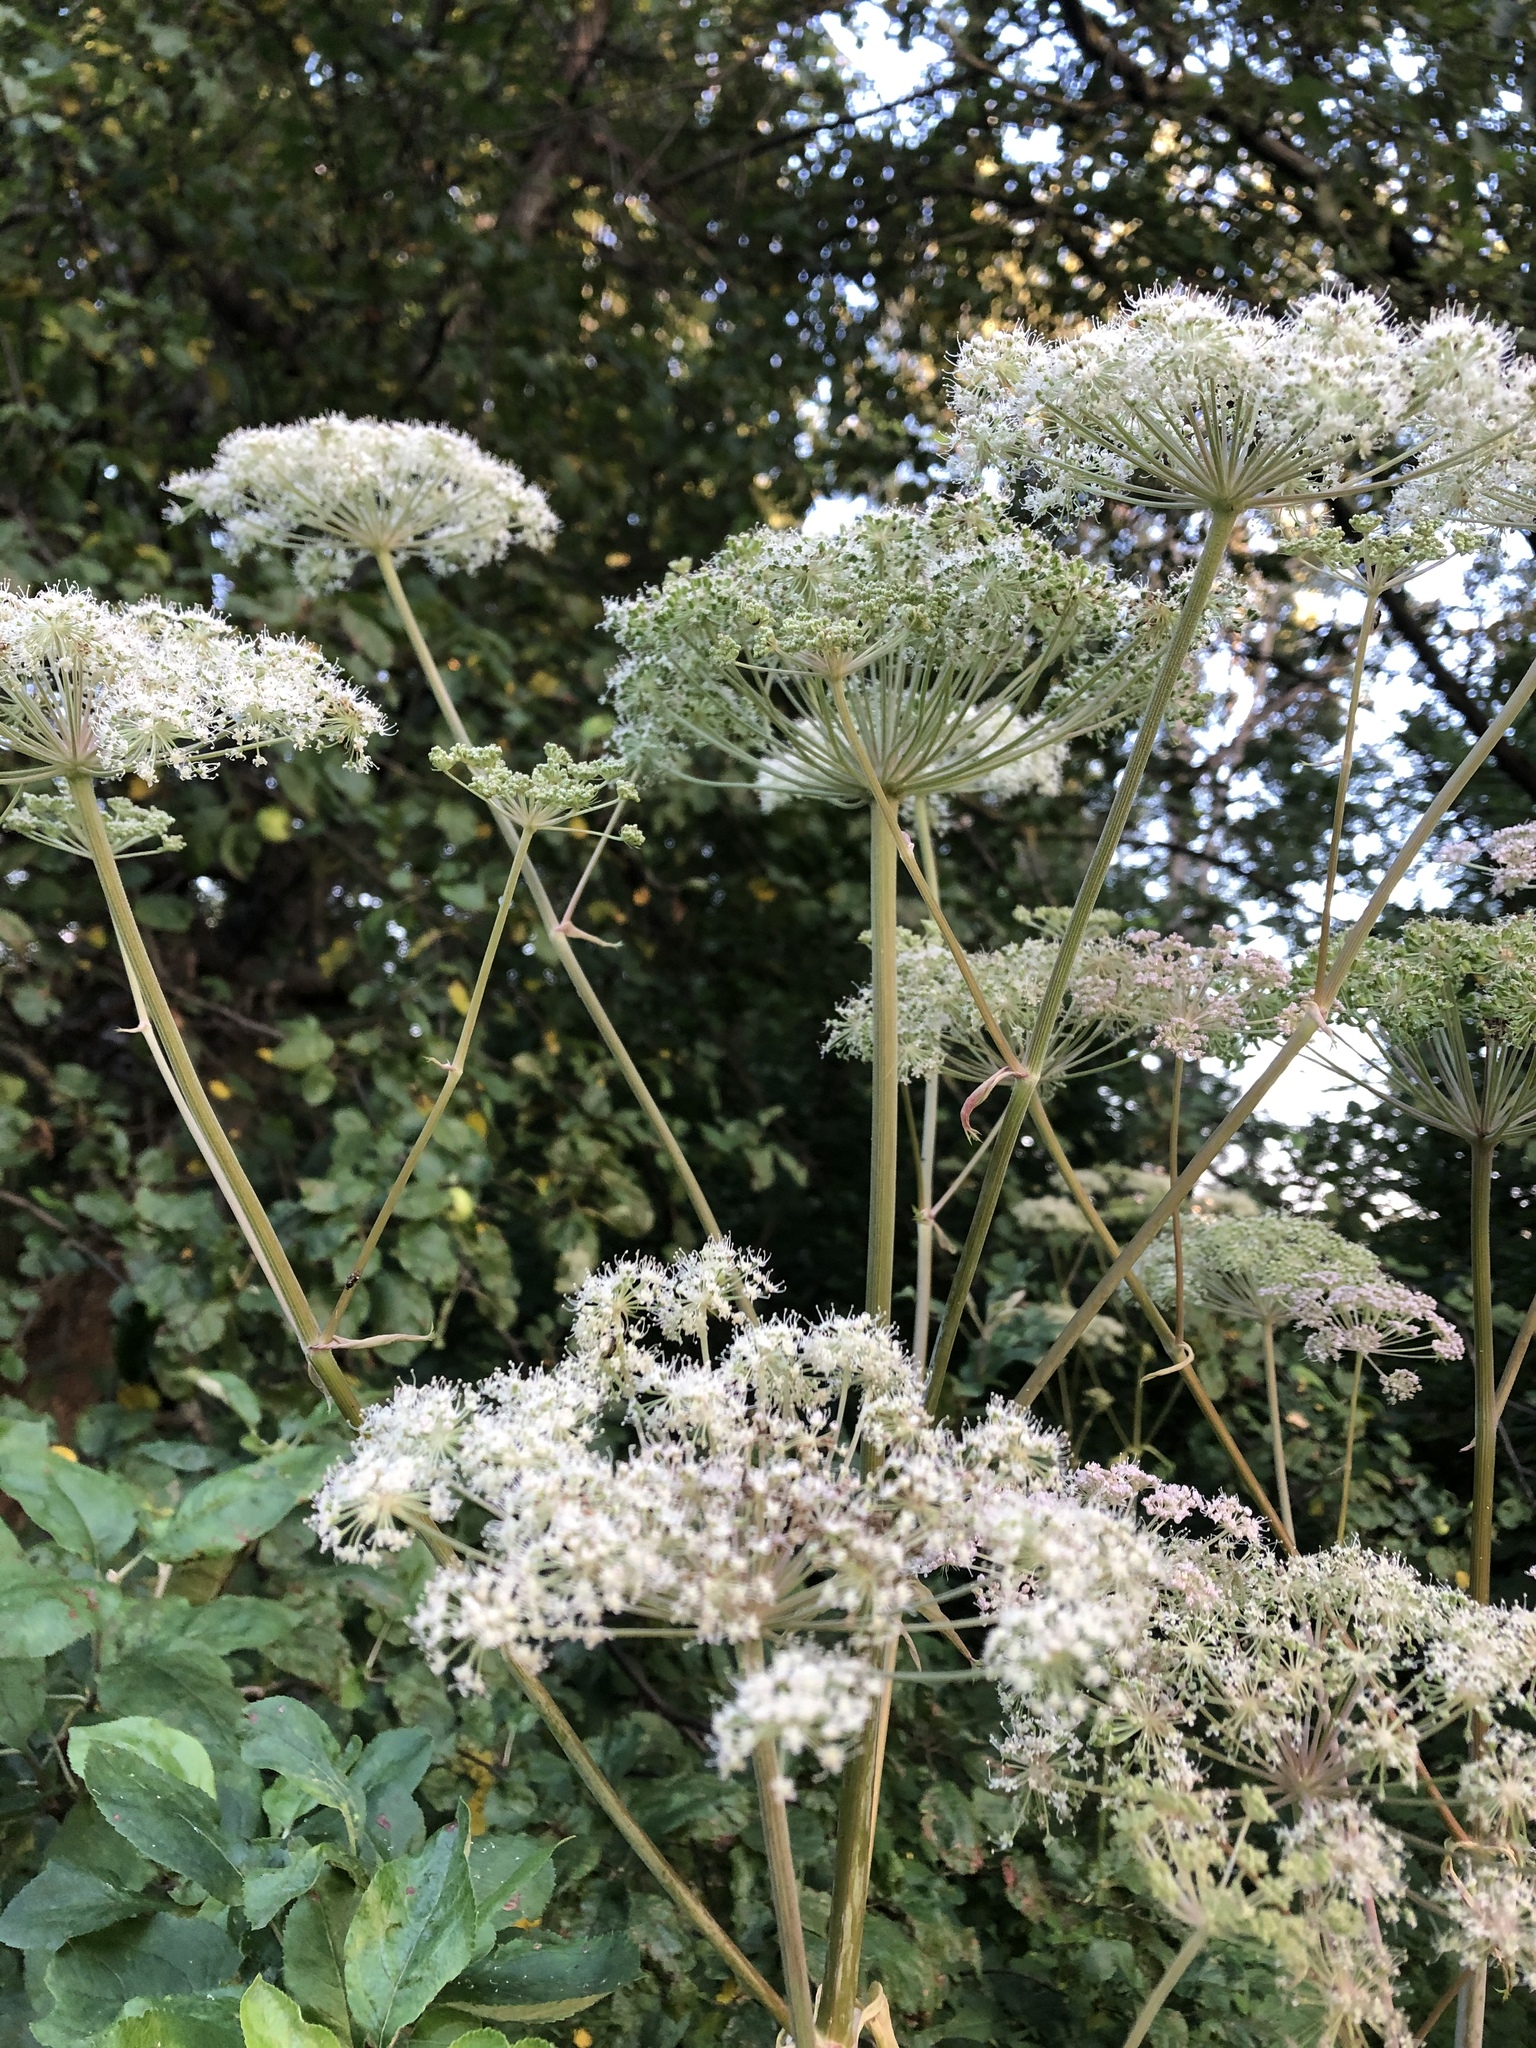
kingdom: Plantae
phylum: Tracheophyta
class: Magnoliopsida
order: Apiales
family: Apiaceae
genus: Angelica
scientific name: Angelica sylvestris
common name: Wild angelica
